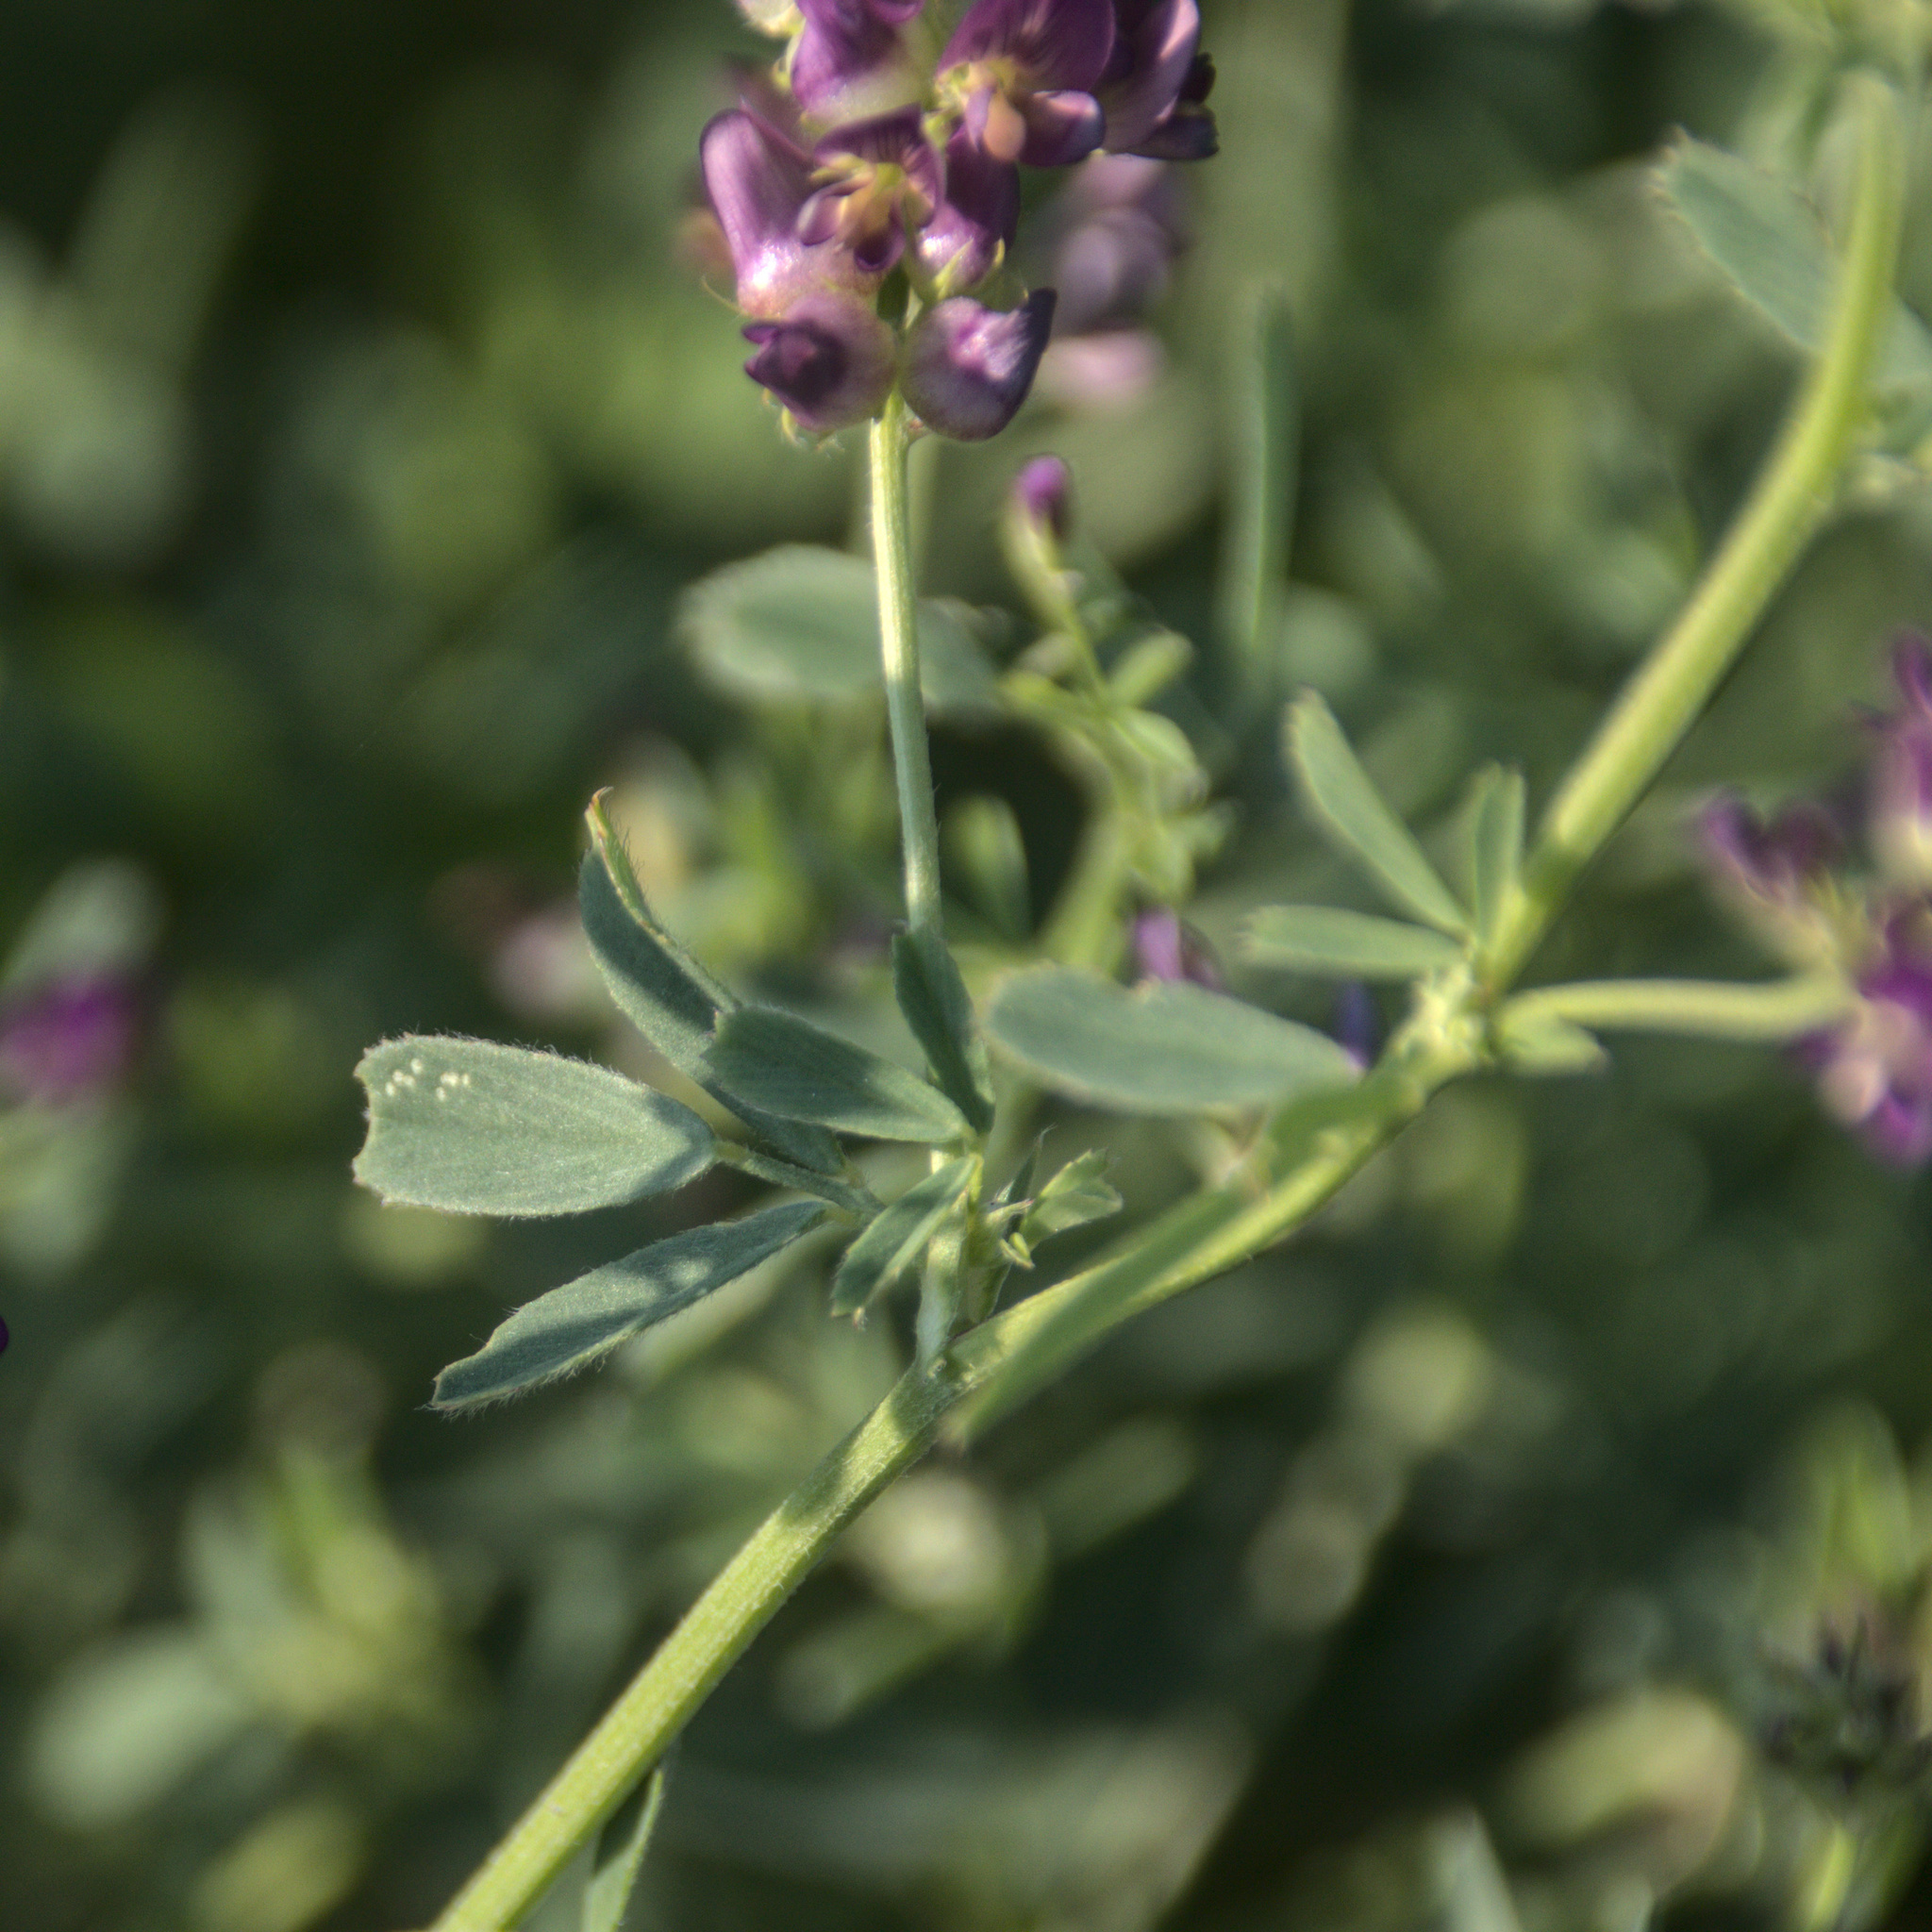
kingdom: Plantae
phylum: Tracheophyta
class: Magnoliopsida
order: Fabales
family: Fabaceae
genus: Medicago
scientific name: Medicago sativa
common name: Alfalfa
